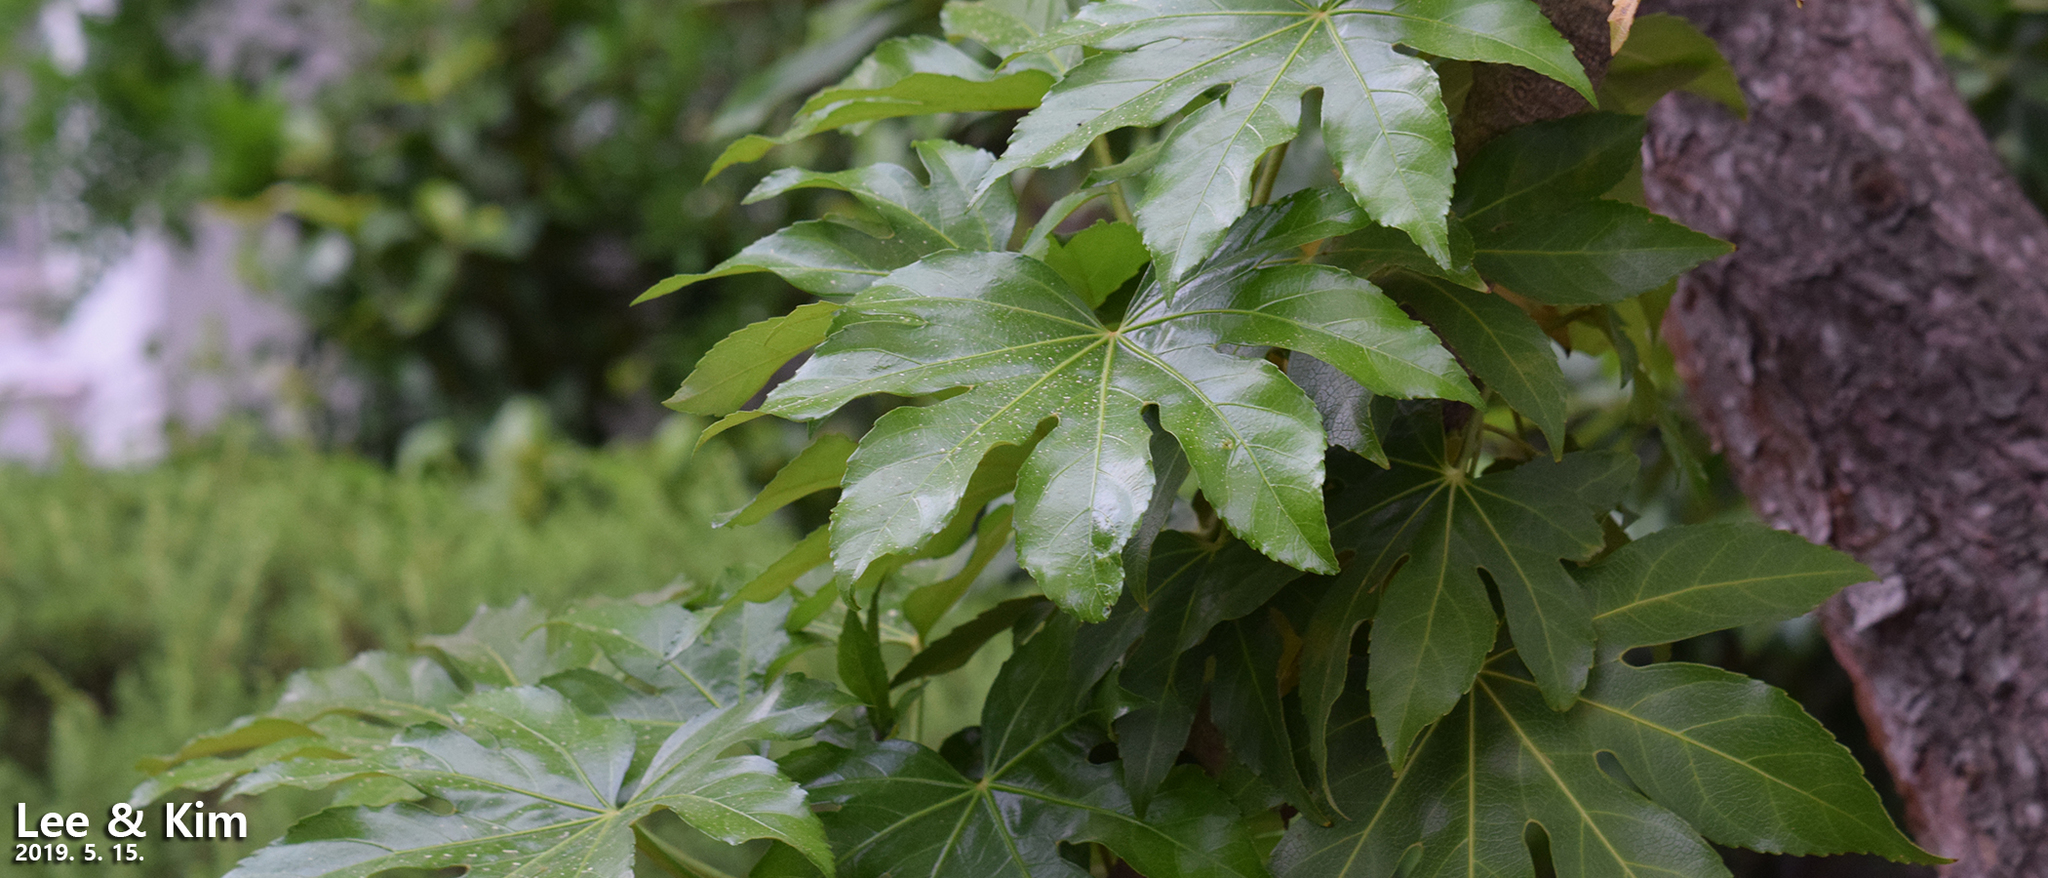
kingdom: Plantae
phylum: Tracheophyta
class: Magnoliopsida
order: Apiales
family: Araliaceae
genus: Fatsia
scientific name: Fatsia japonica
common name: Fatsia
